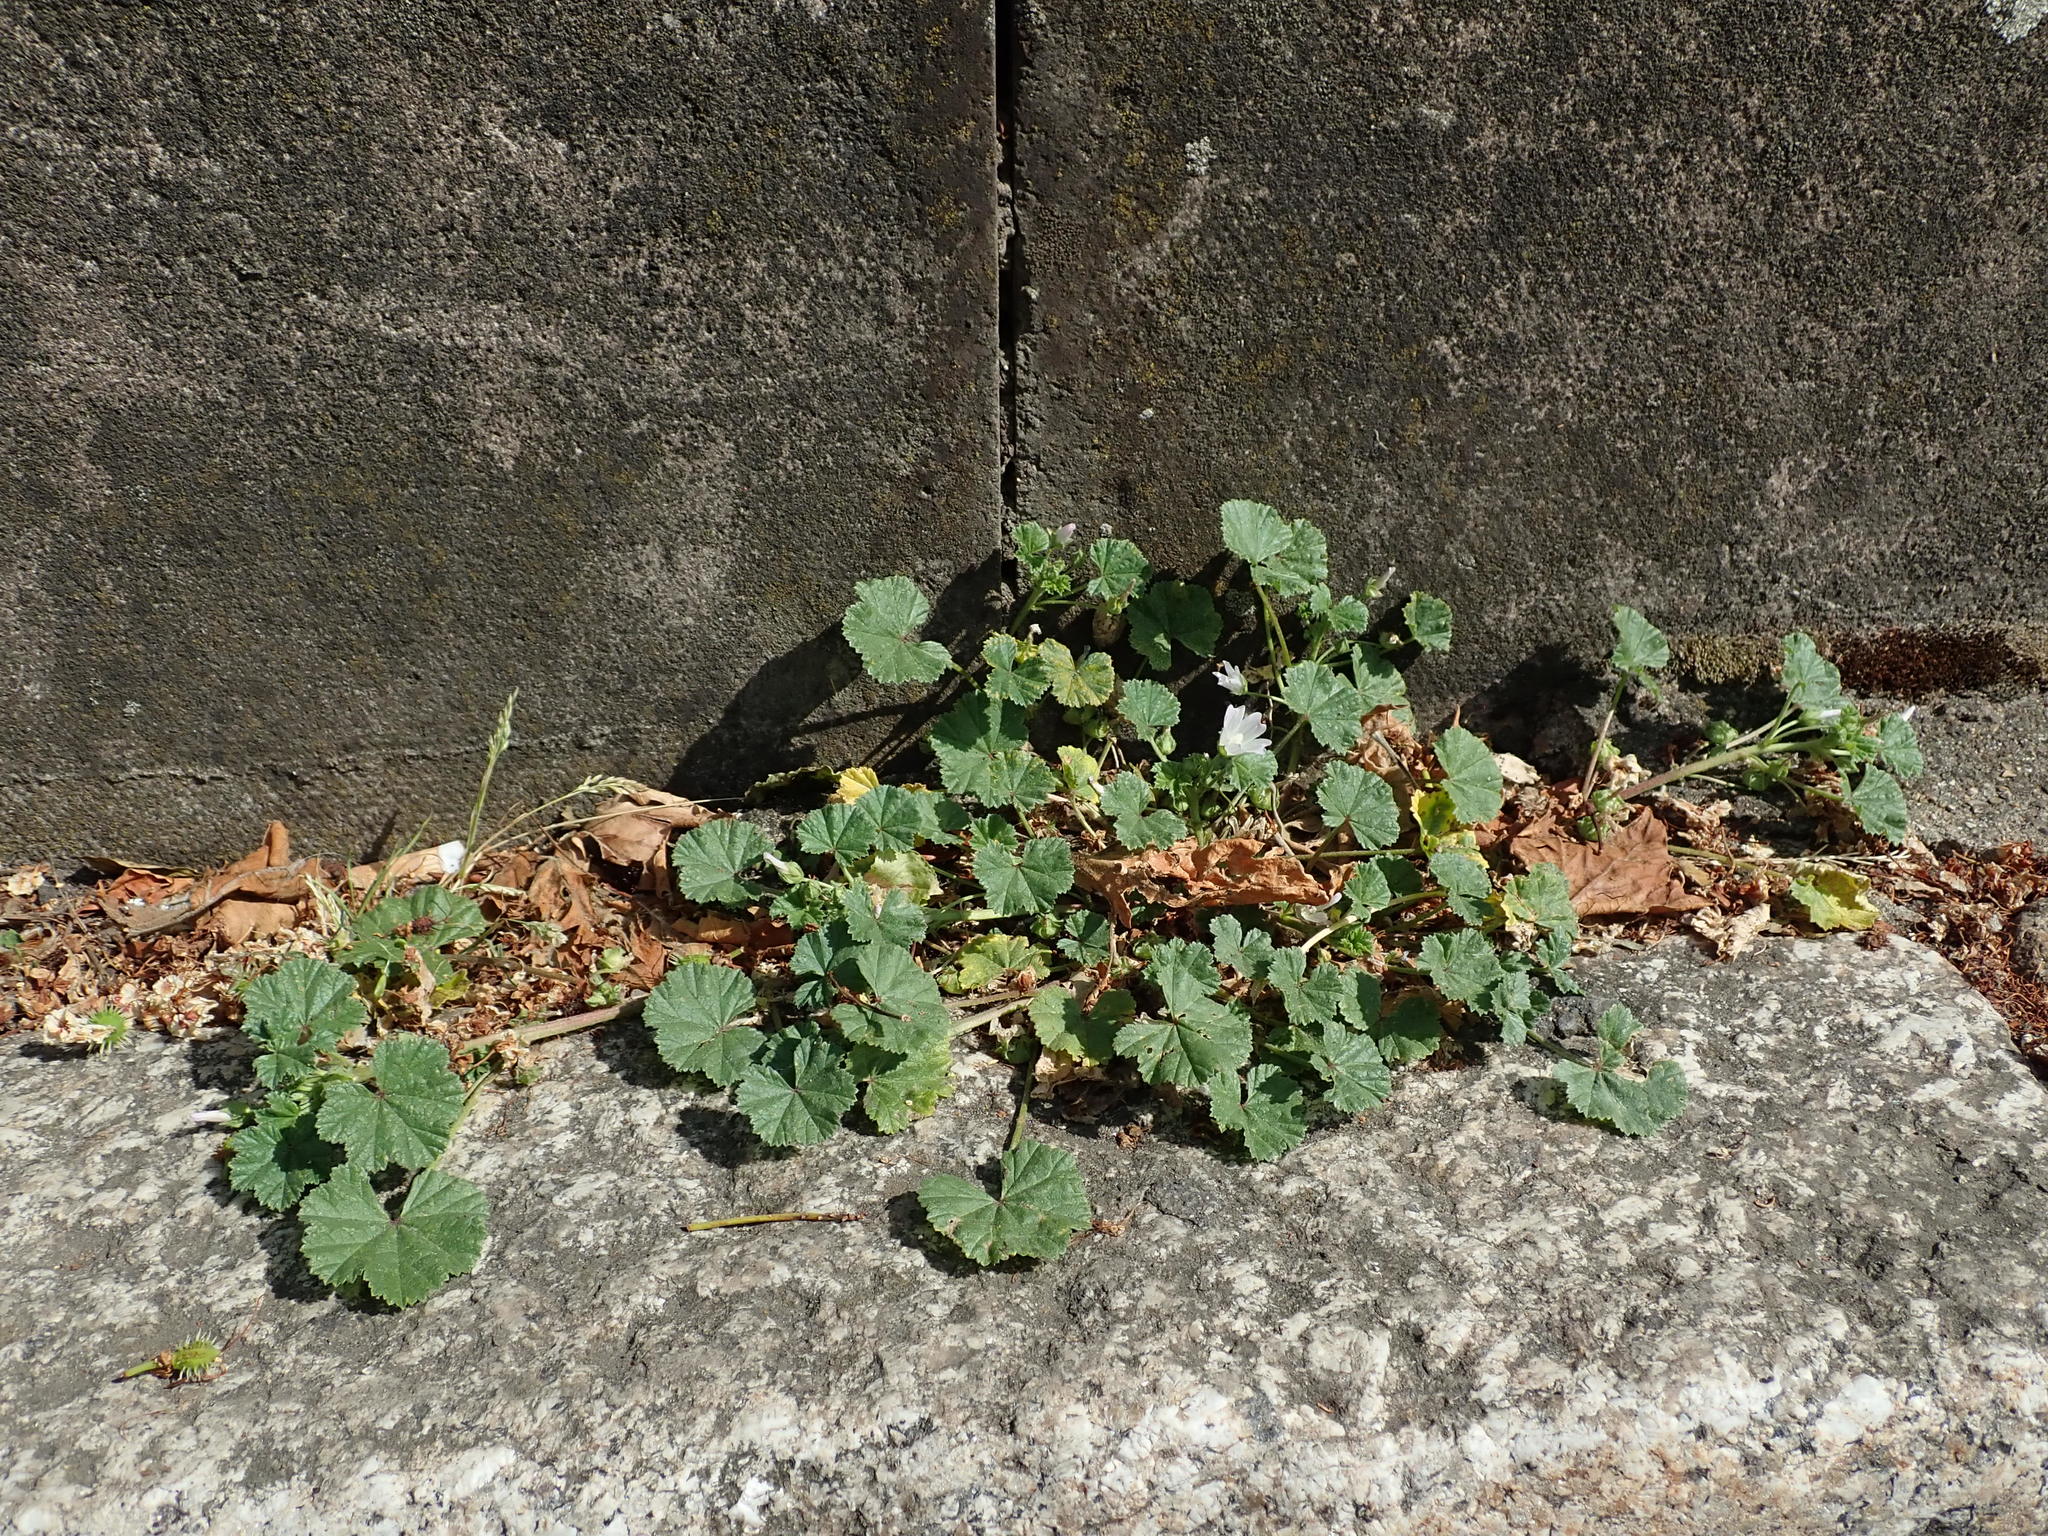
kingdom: Plantae
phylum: Tracheophyta
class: Magnoliopsida
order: Malvales
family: Malvaceae
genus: Malva
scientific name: Malva neglecta
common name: Common mallow
